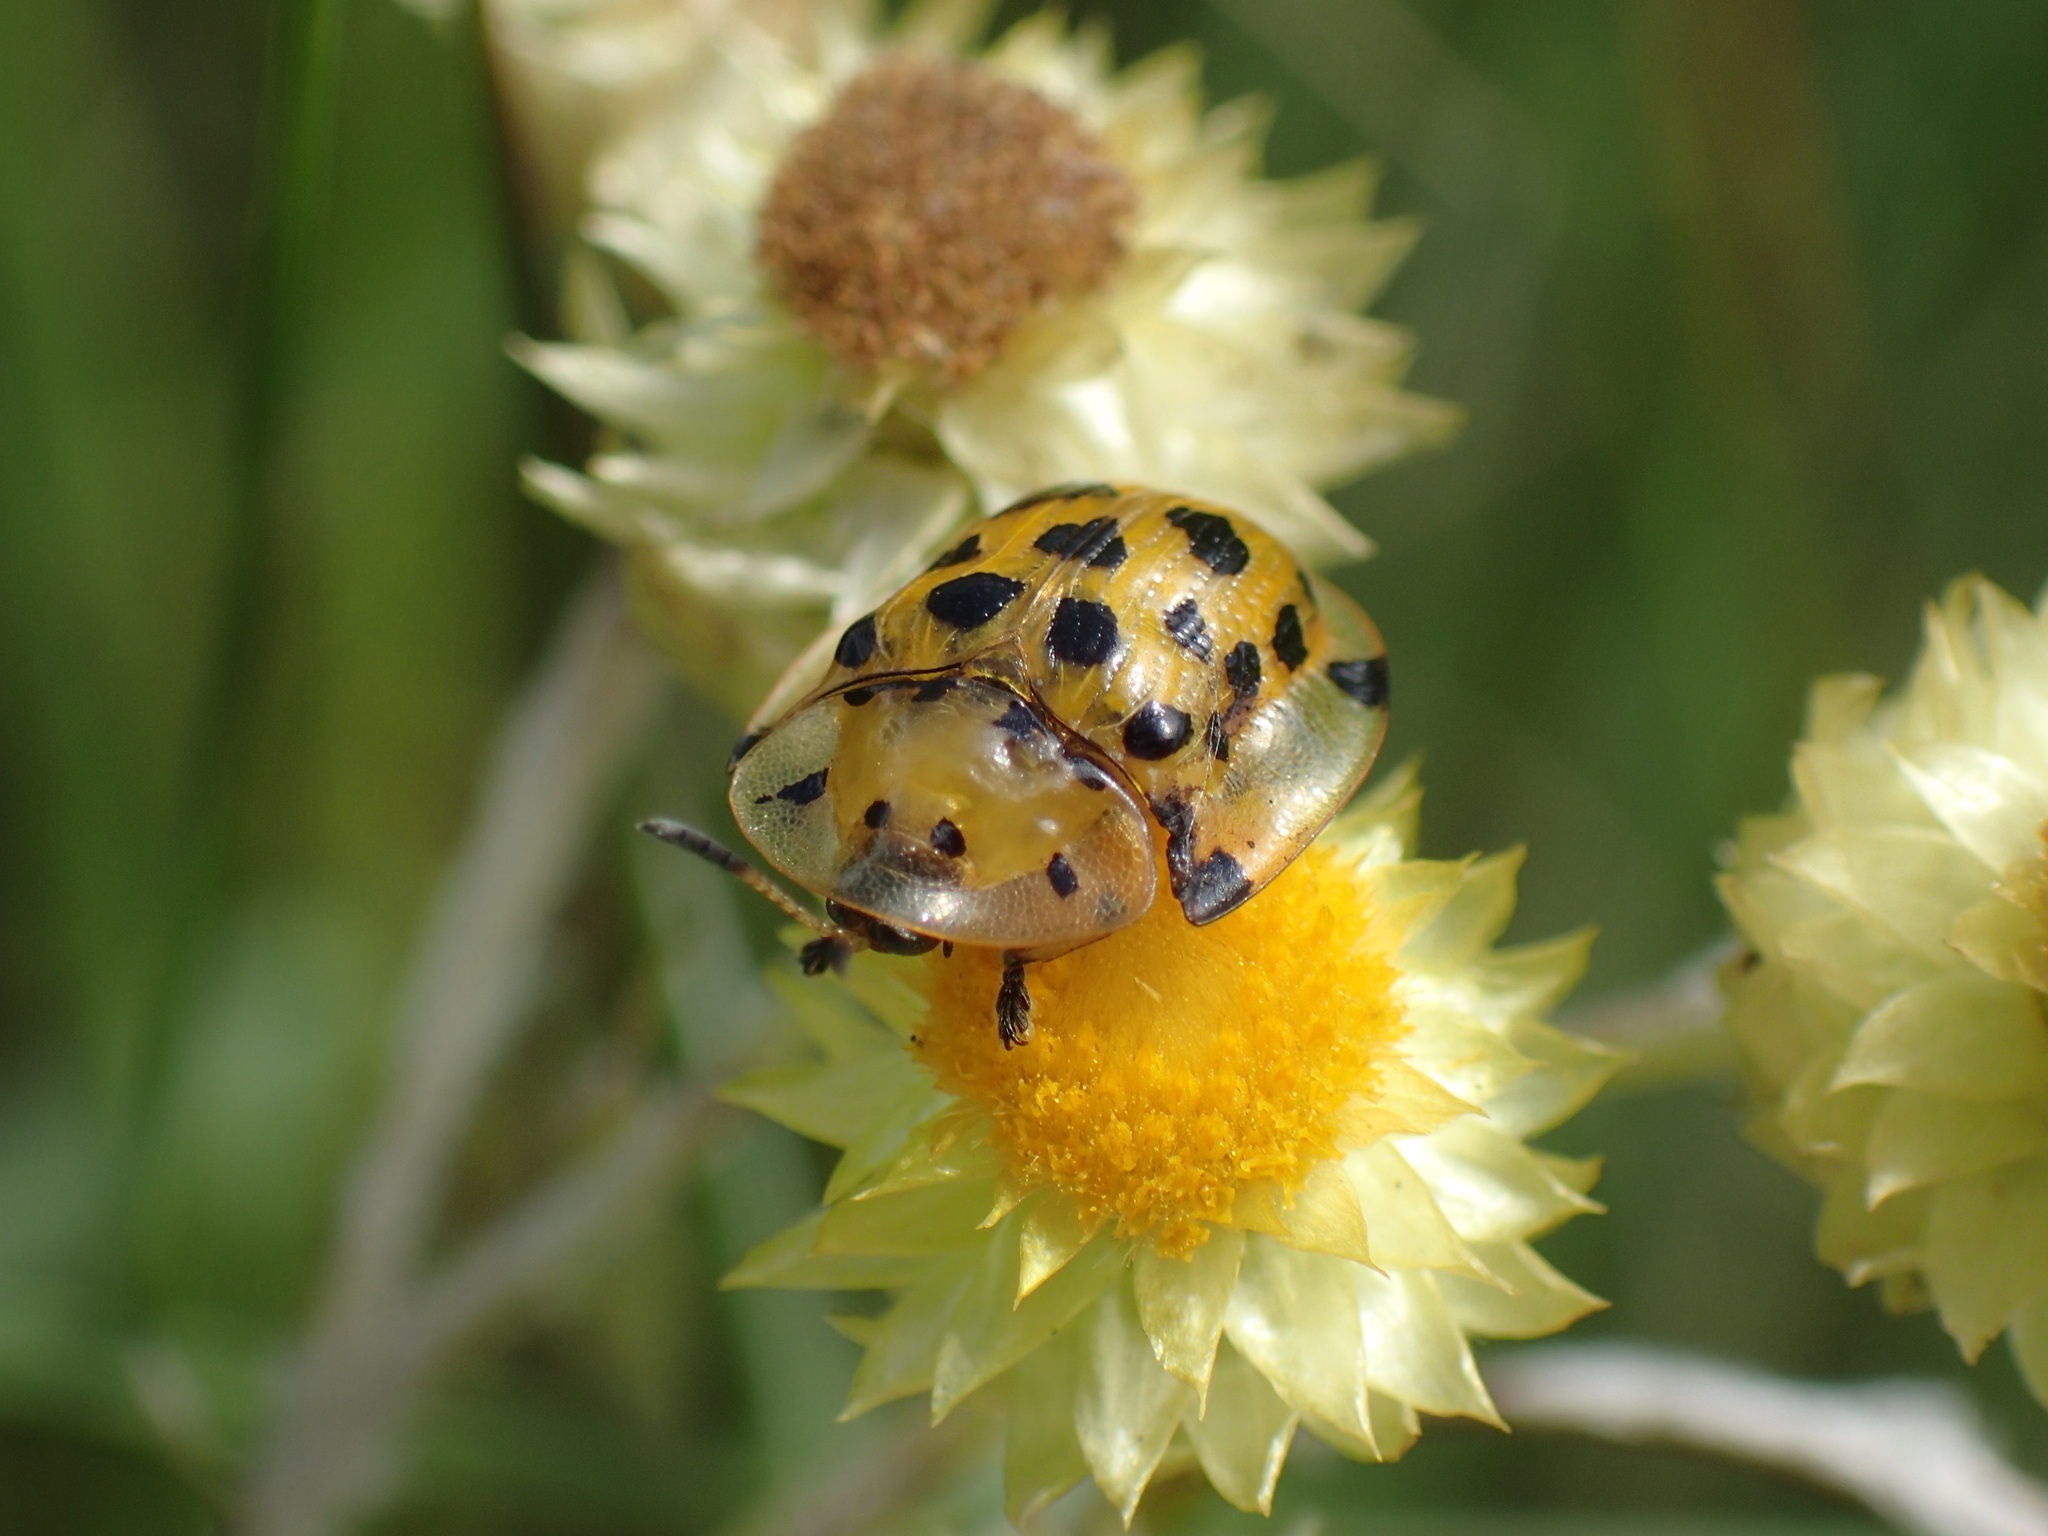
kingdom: Animalia
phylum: Arthropoda
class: Insecta
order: Coleoptera
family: Chrysomelidae
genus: Aethiopocassis
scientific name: Aethiopocassis vigintimaculata
